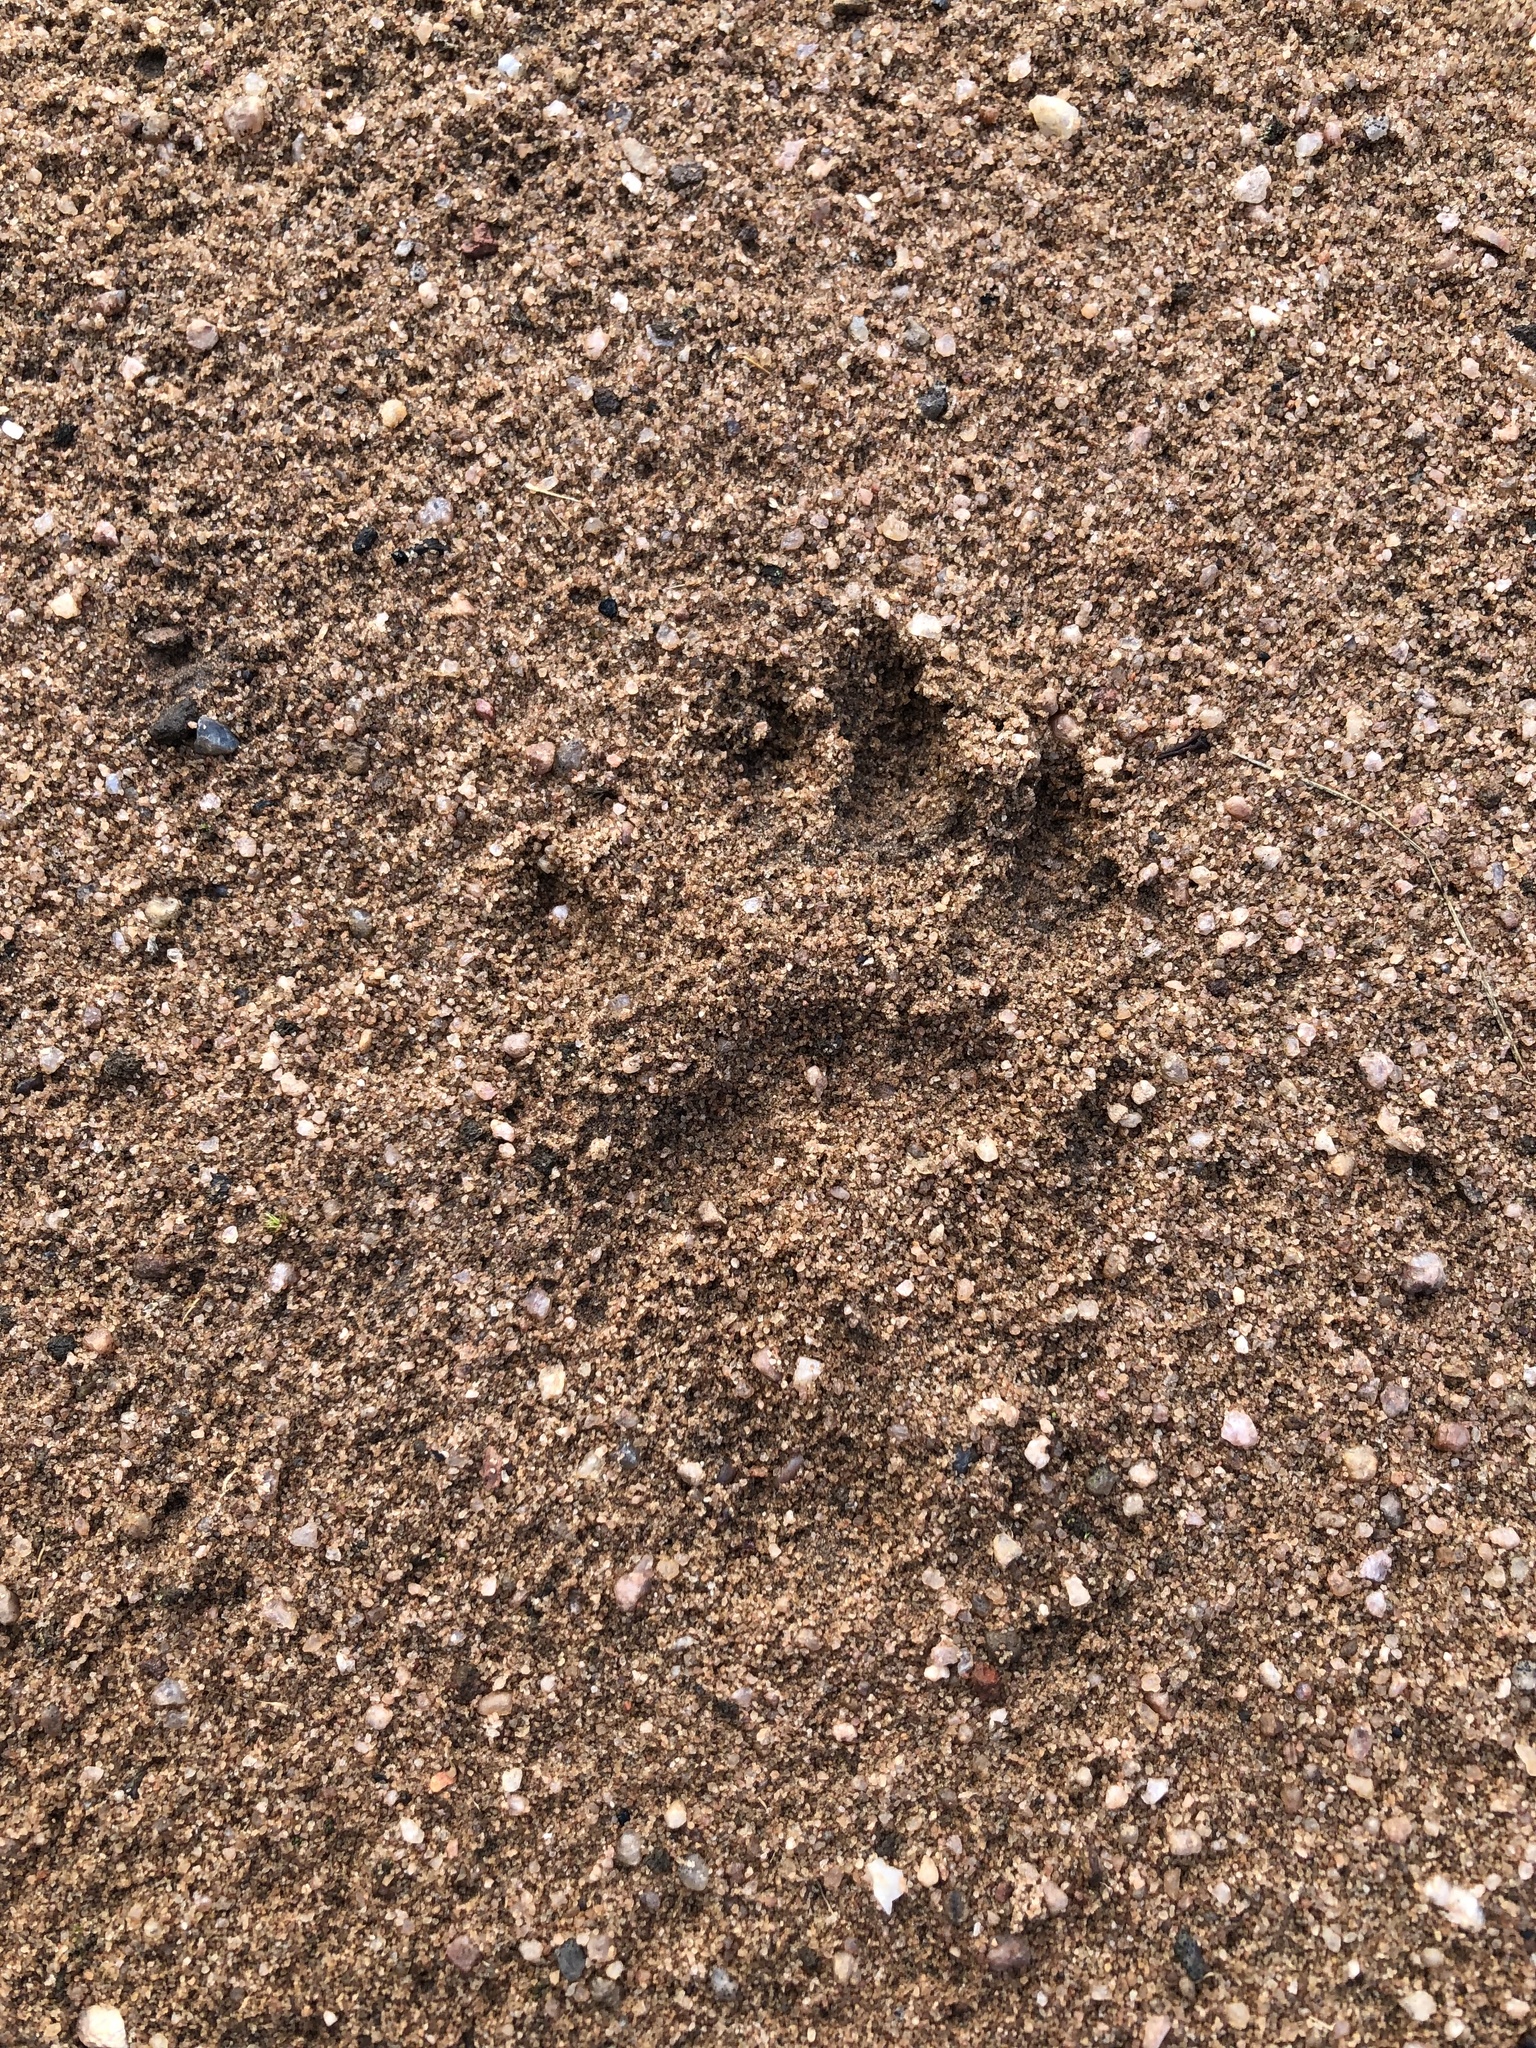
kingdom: Animalia
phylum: Chordata
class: Mammalia
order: Rodentia
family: Hystricidae
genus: Hystrix
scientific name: Hystrix africaeaustralis
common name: Cape porcupine
